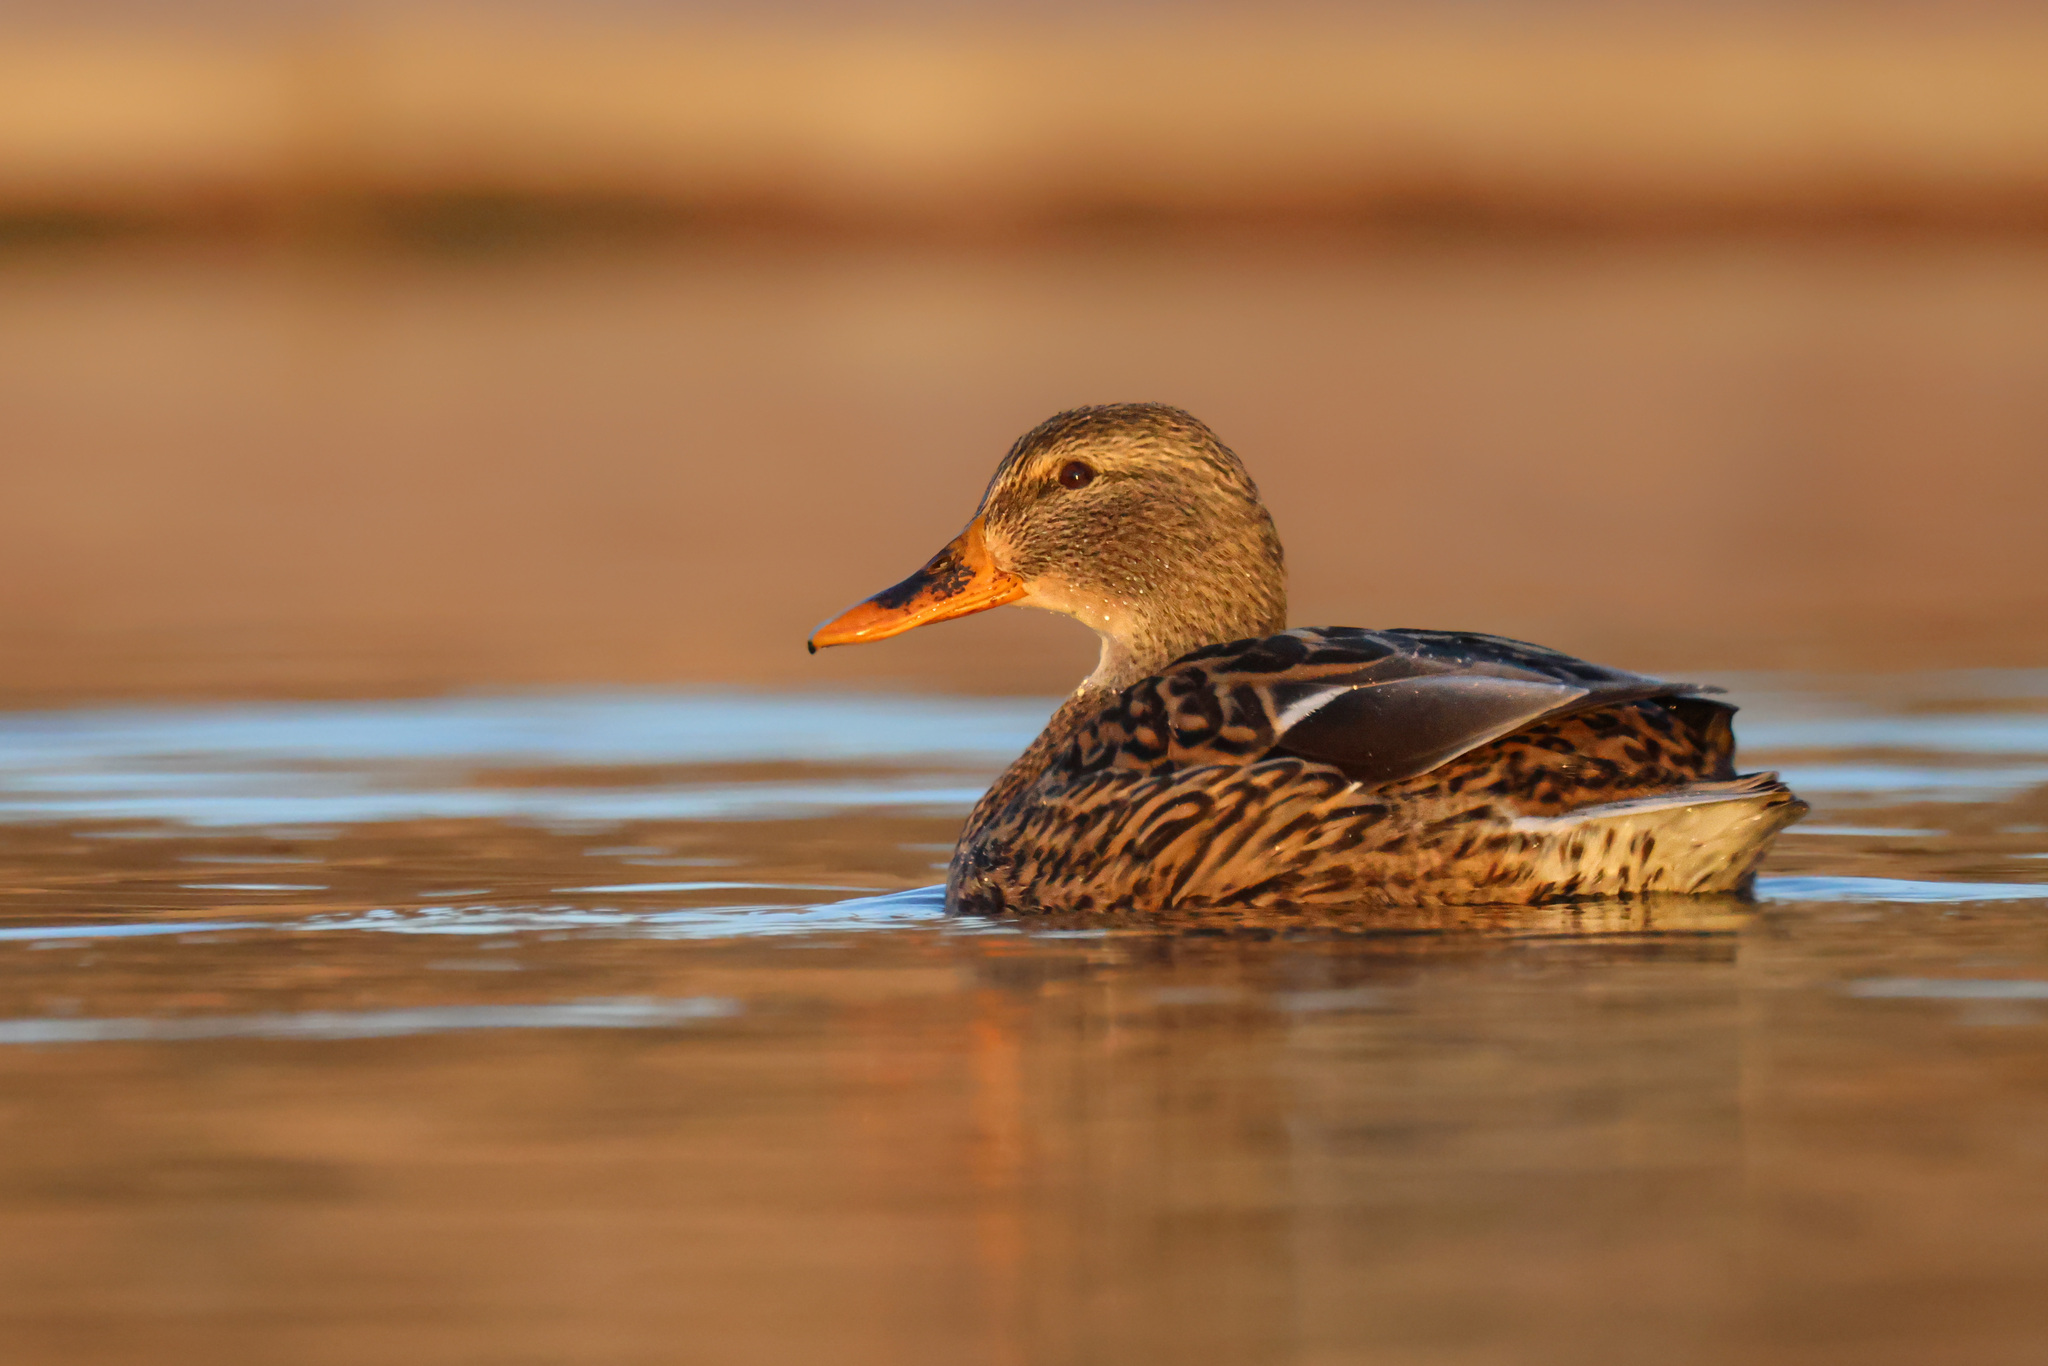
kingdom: Animalia
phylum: Chordata
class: Aves
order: Anseriformes
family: Anatidae
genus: Anas
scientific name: Anas platyrhynchos
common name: Mallard
